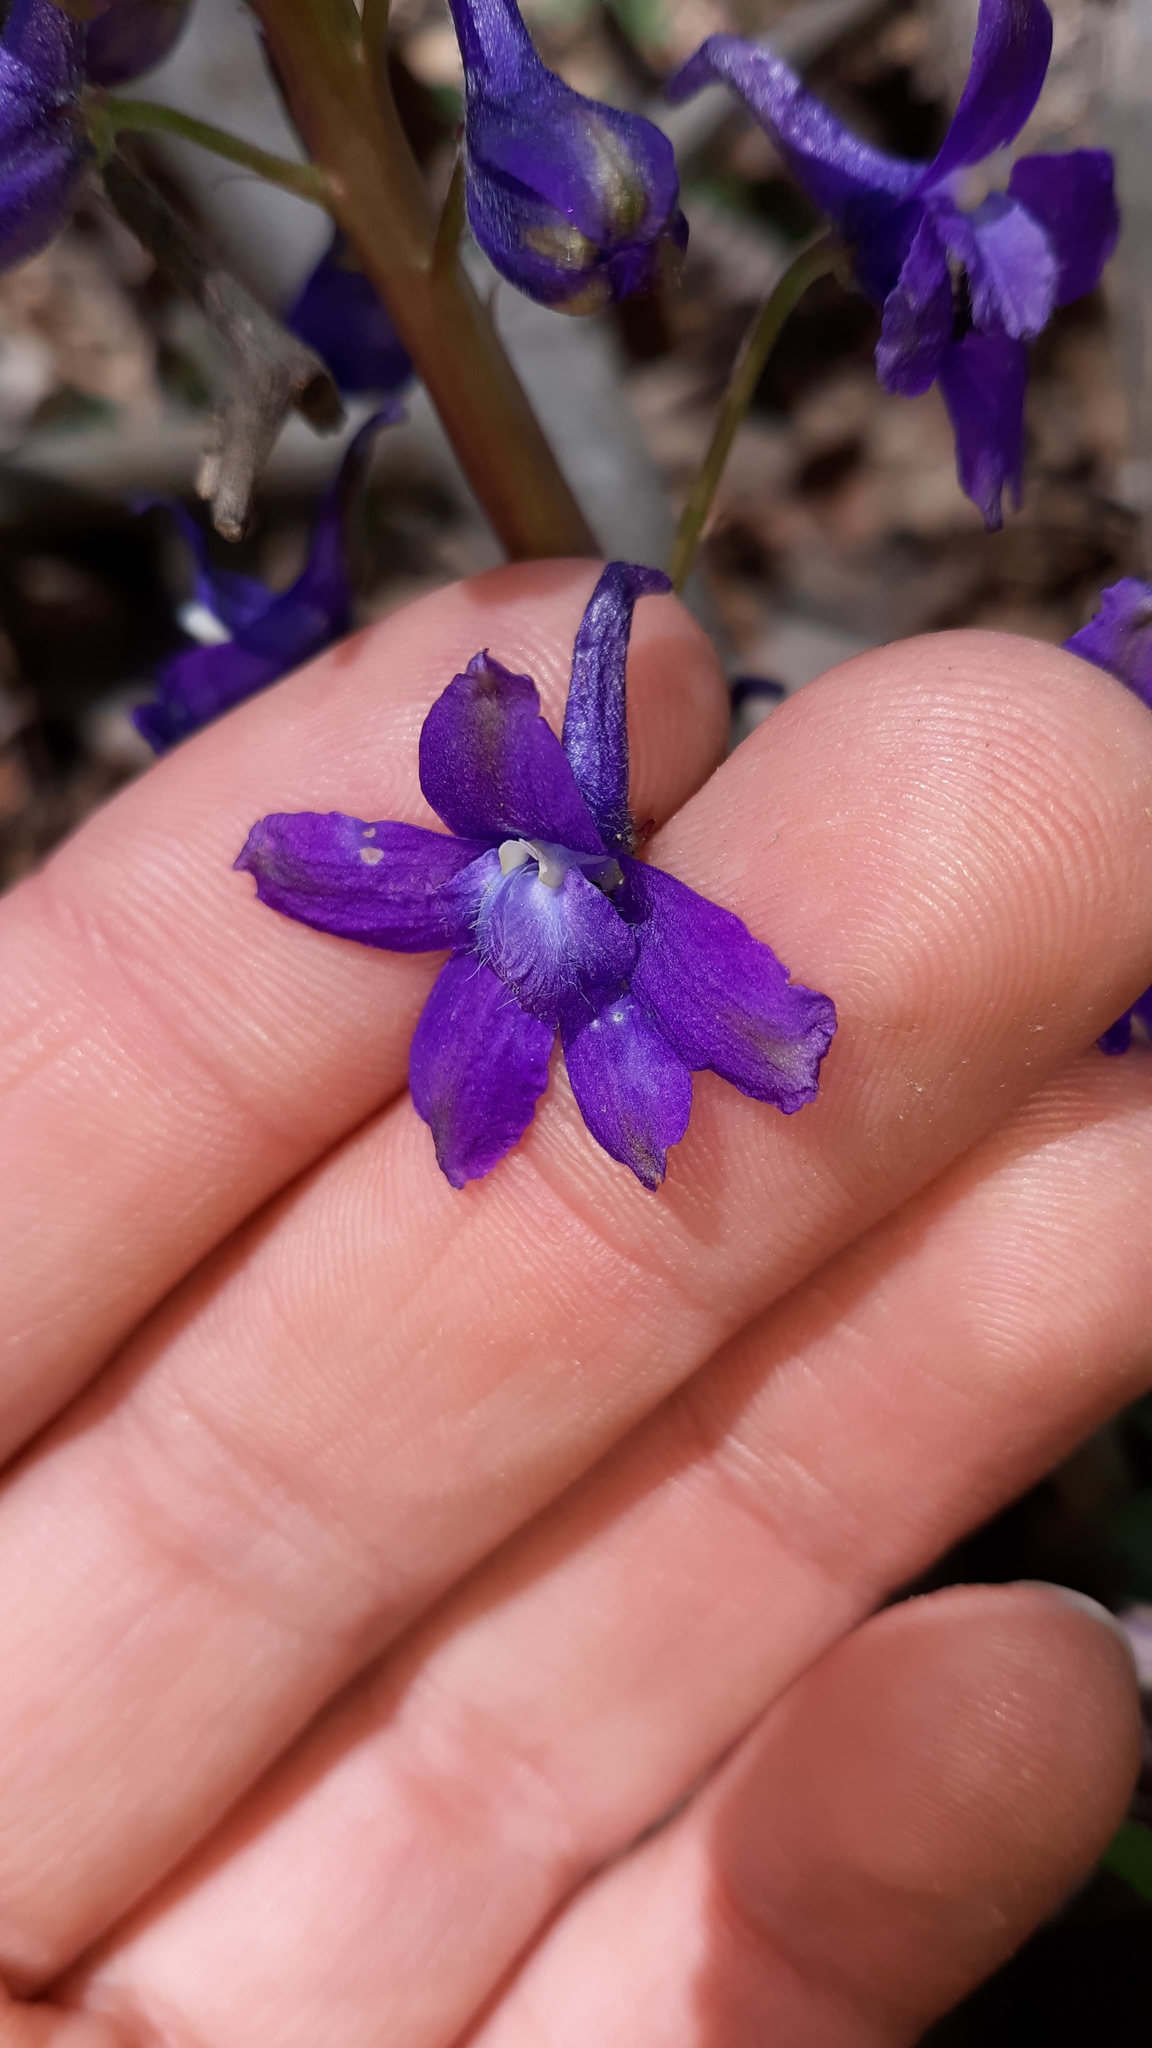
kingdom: Plantae
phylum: Tracheophyta
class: Magnoliopsida
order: Ranunculales
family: Ranunculaceae
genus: Delphinium
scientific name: Delphinium tricorne
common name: Dwarf larkspur
